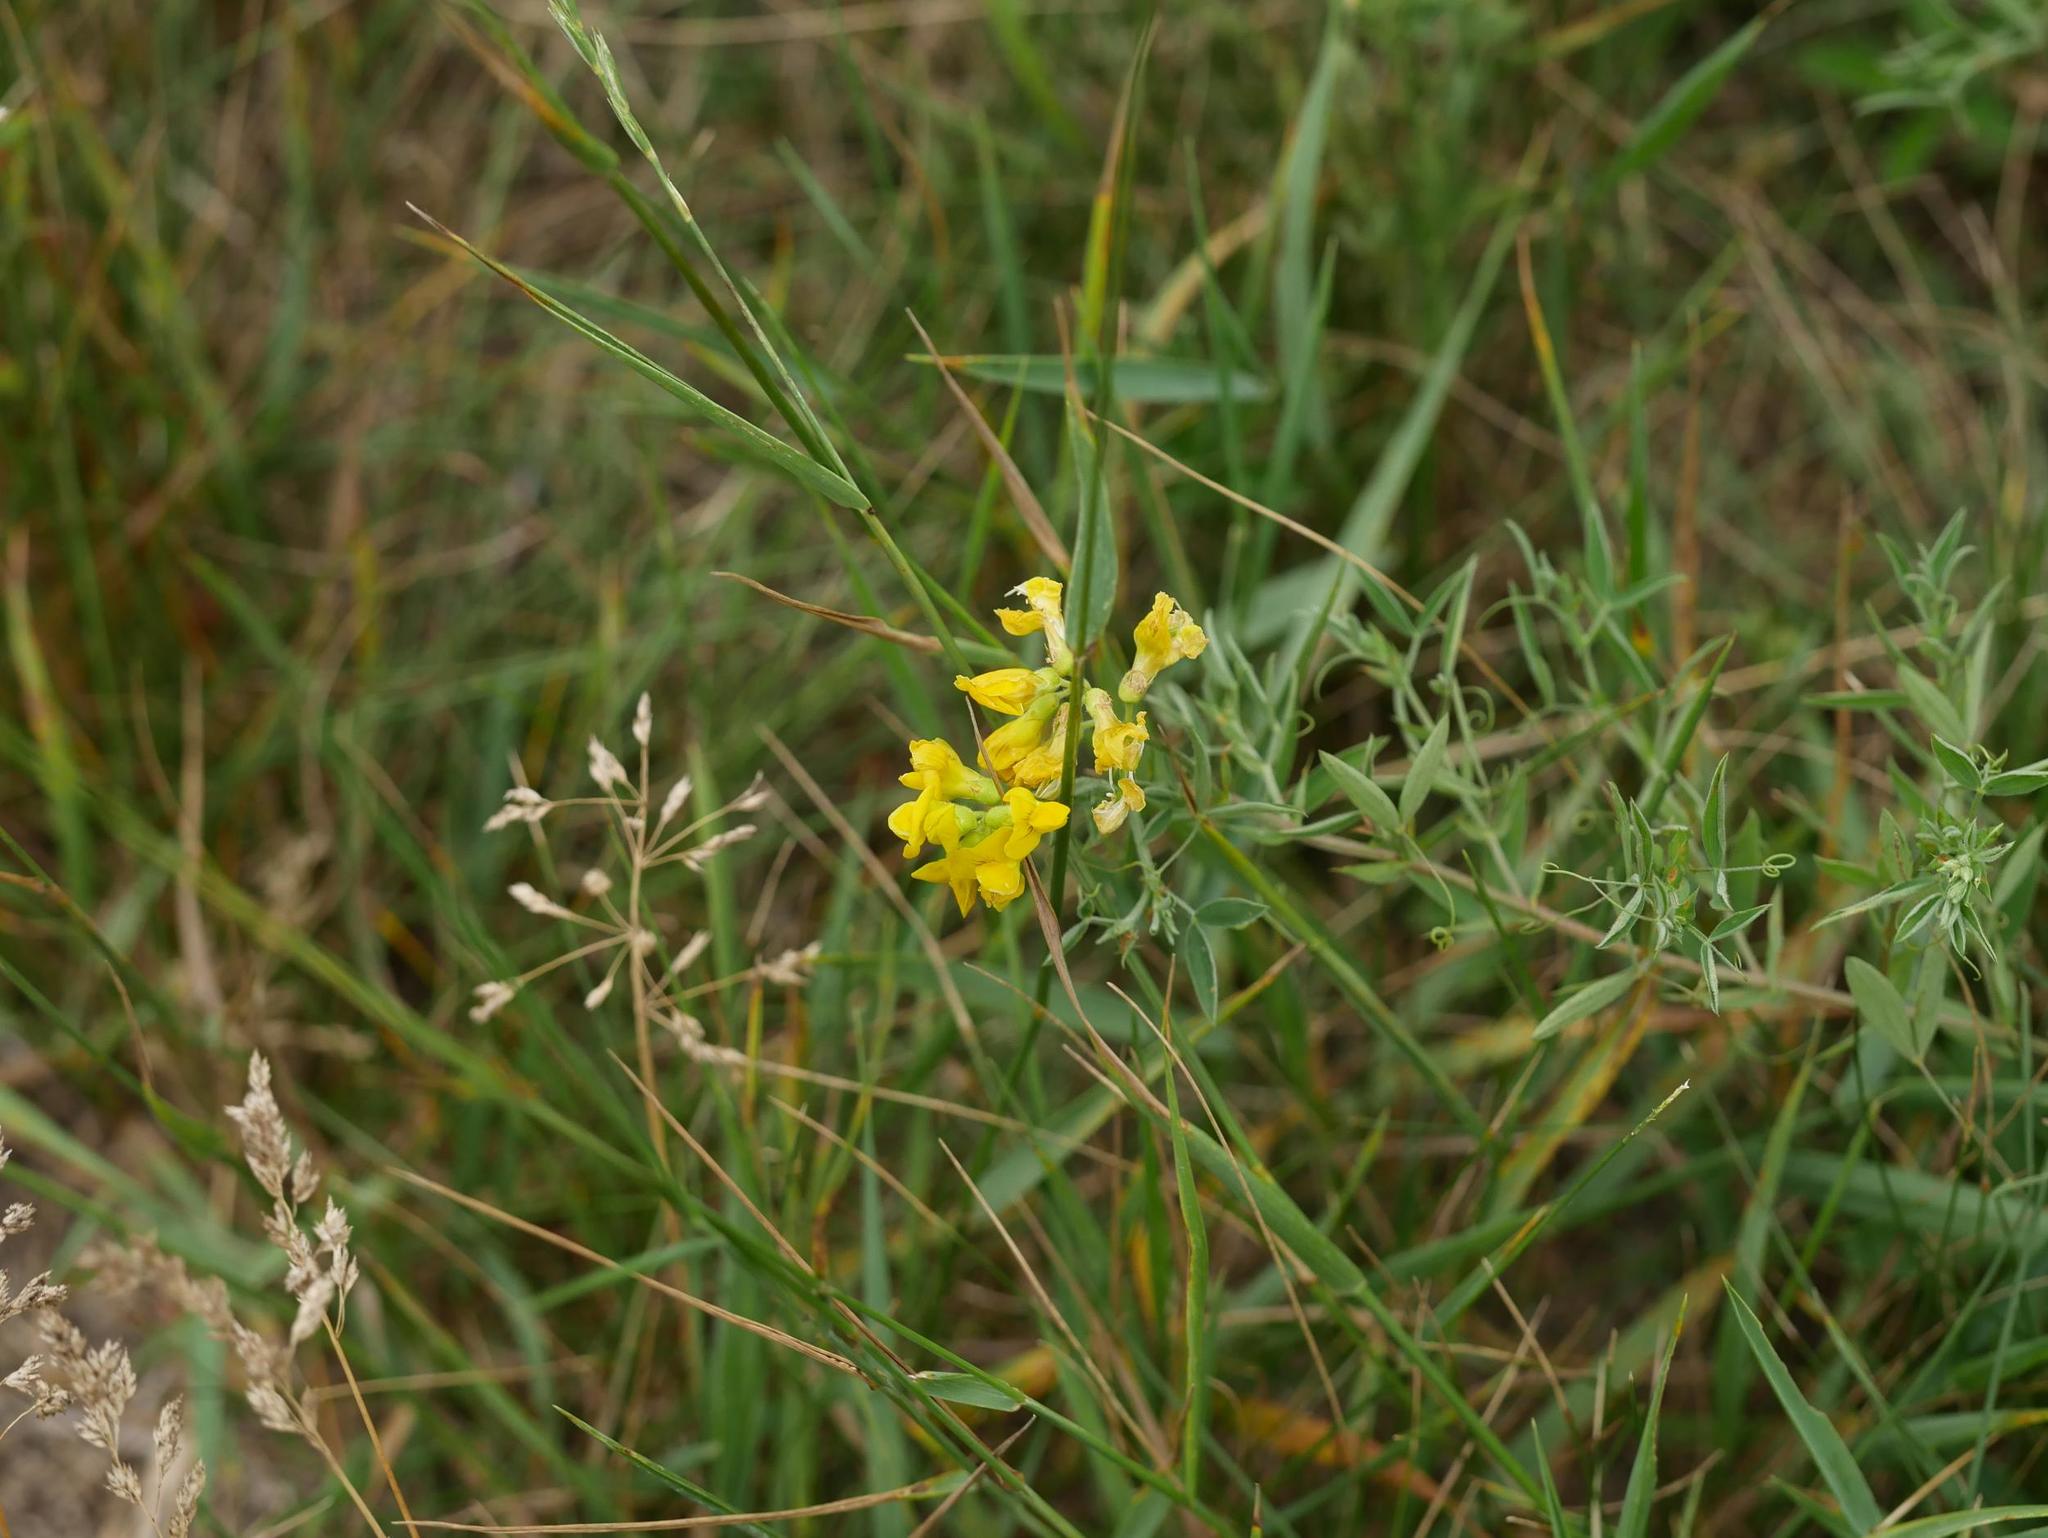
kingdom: Plantae
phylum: Tracheophyta
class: Magnoliopsida
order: Fabales
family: Fabaceae
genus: Lathyrus
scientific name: Lathyrus pratensis
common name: Meadow vetchling
